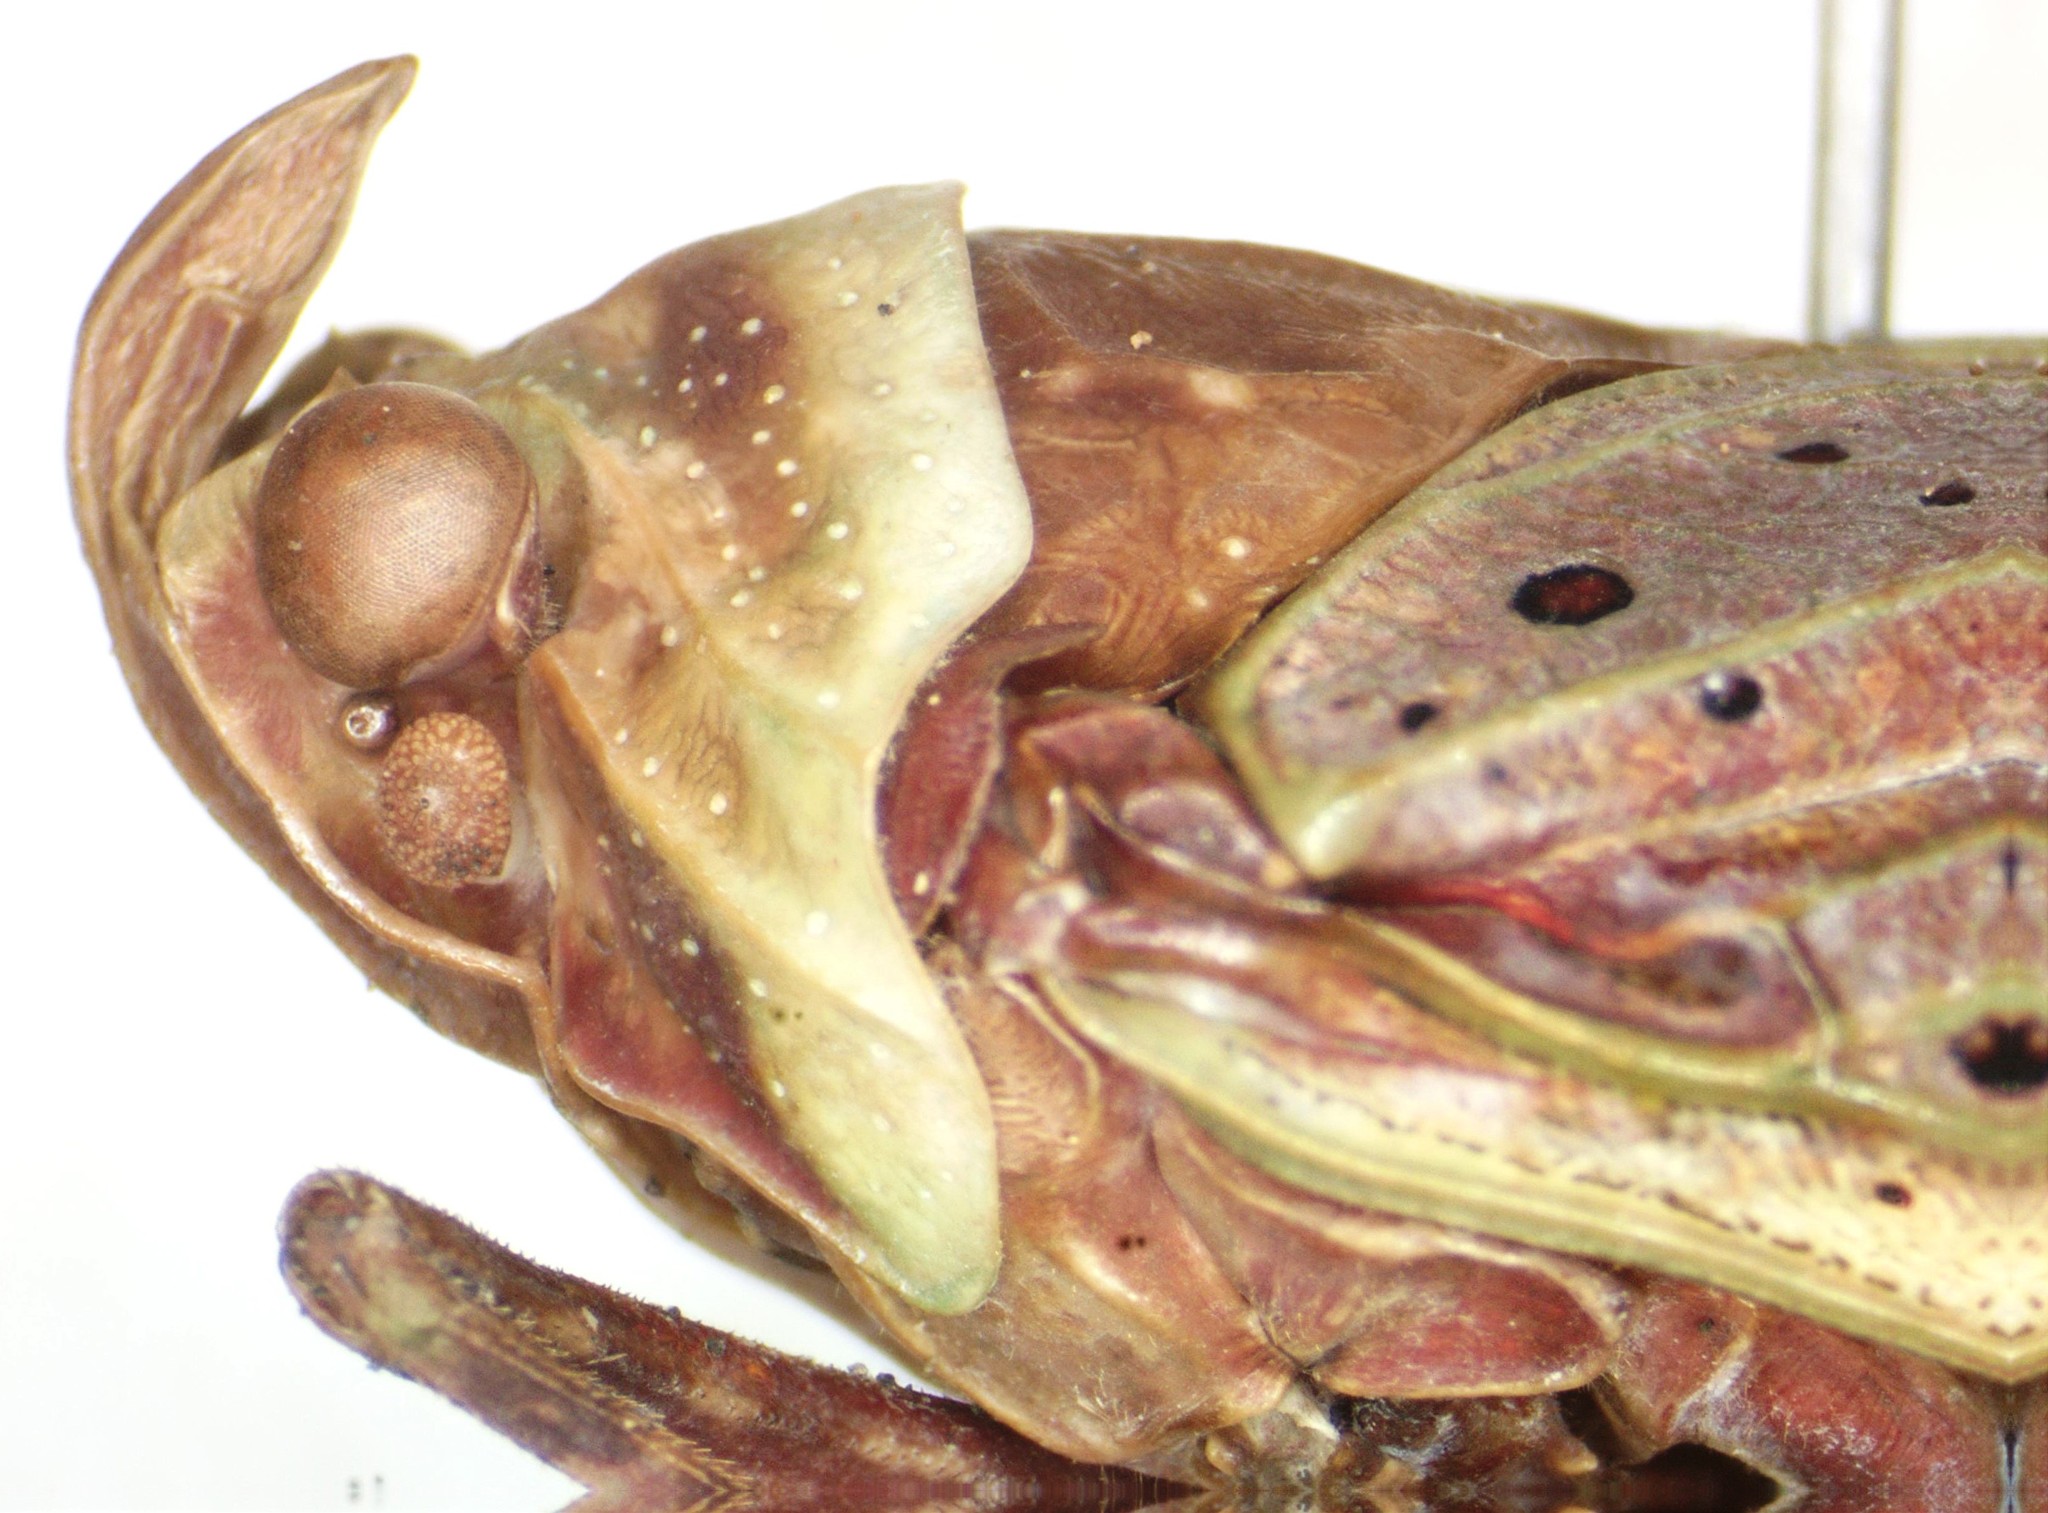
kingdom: Animalia
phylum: Arthropoda
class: Insecta
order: Hemiptera
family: Fulgoridae
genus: Copidocephala
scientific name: Copidocephala guttata
